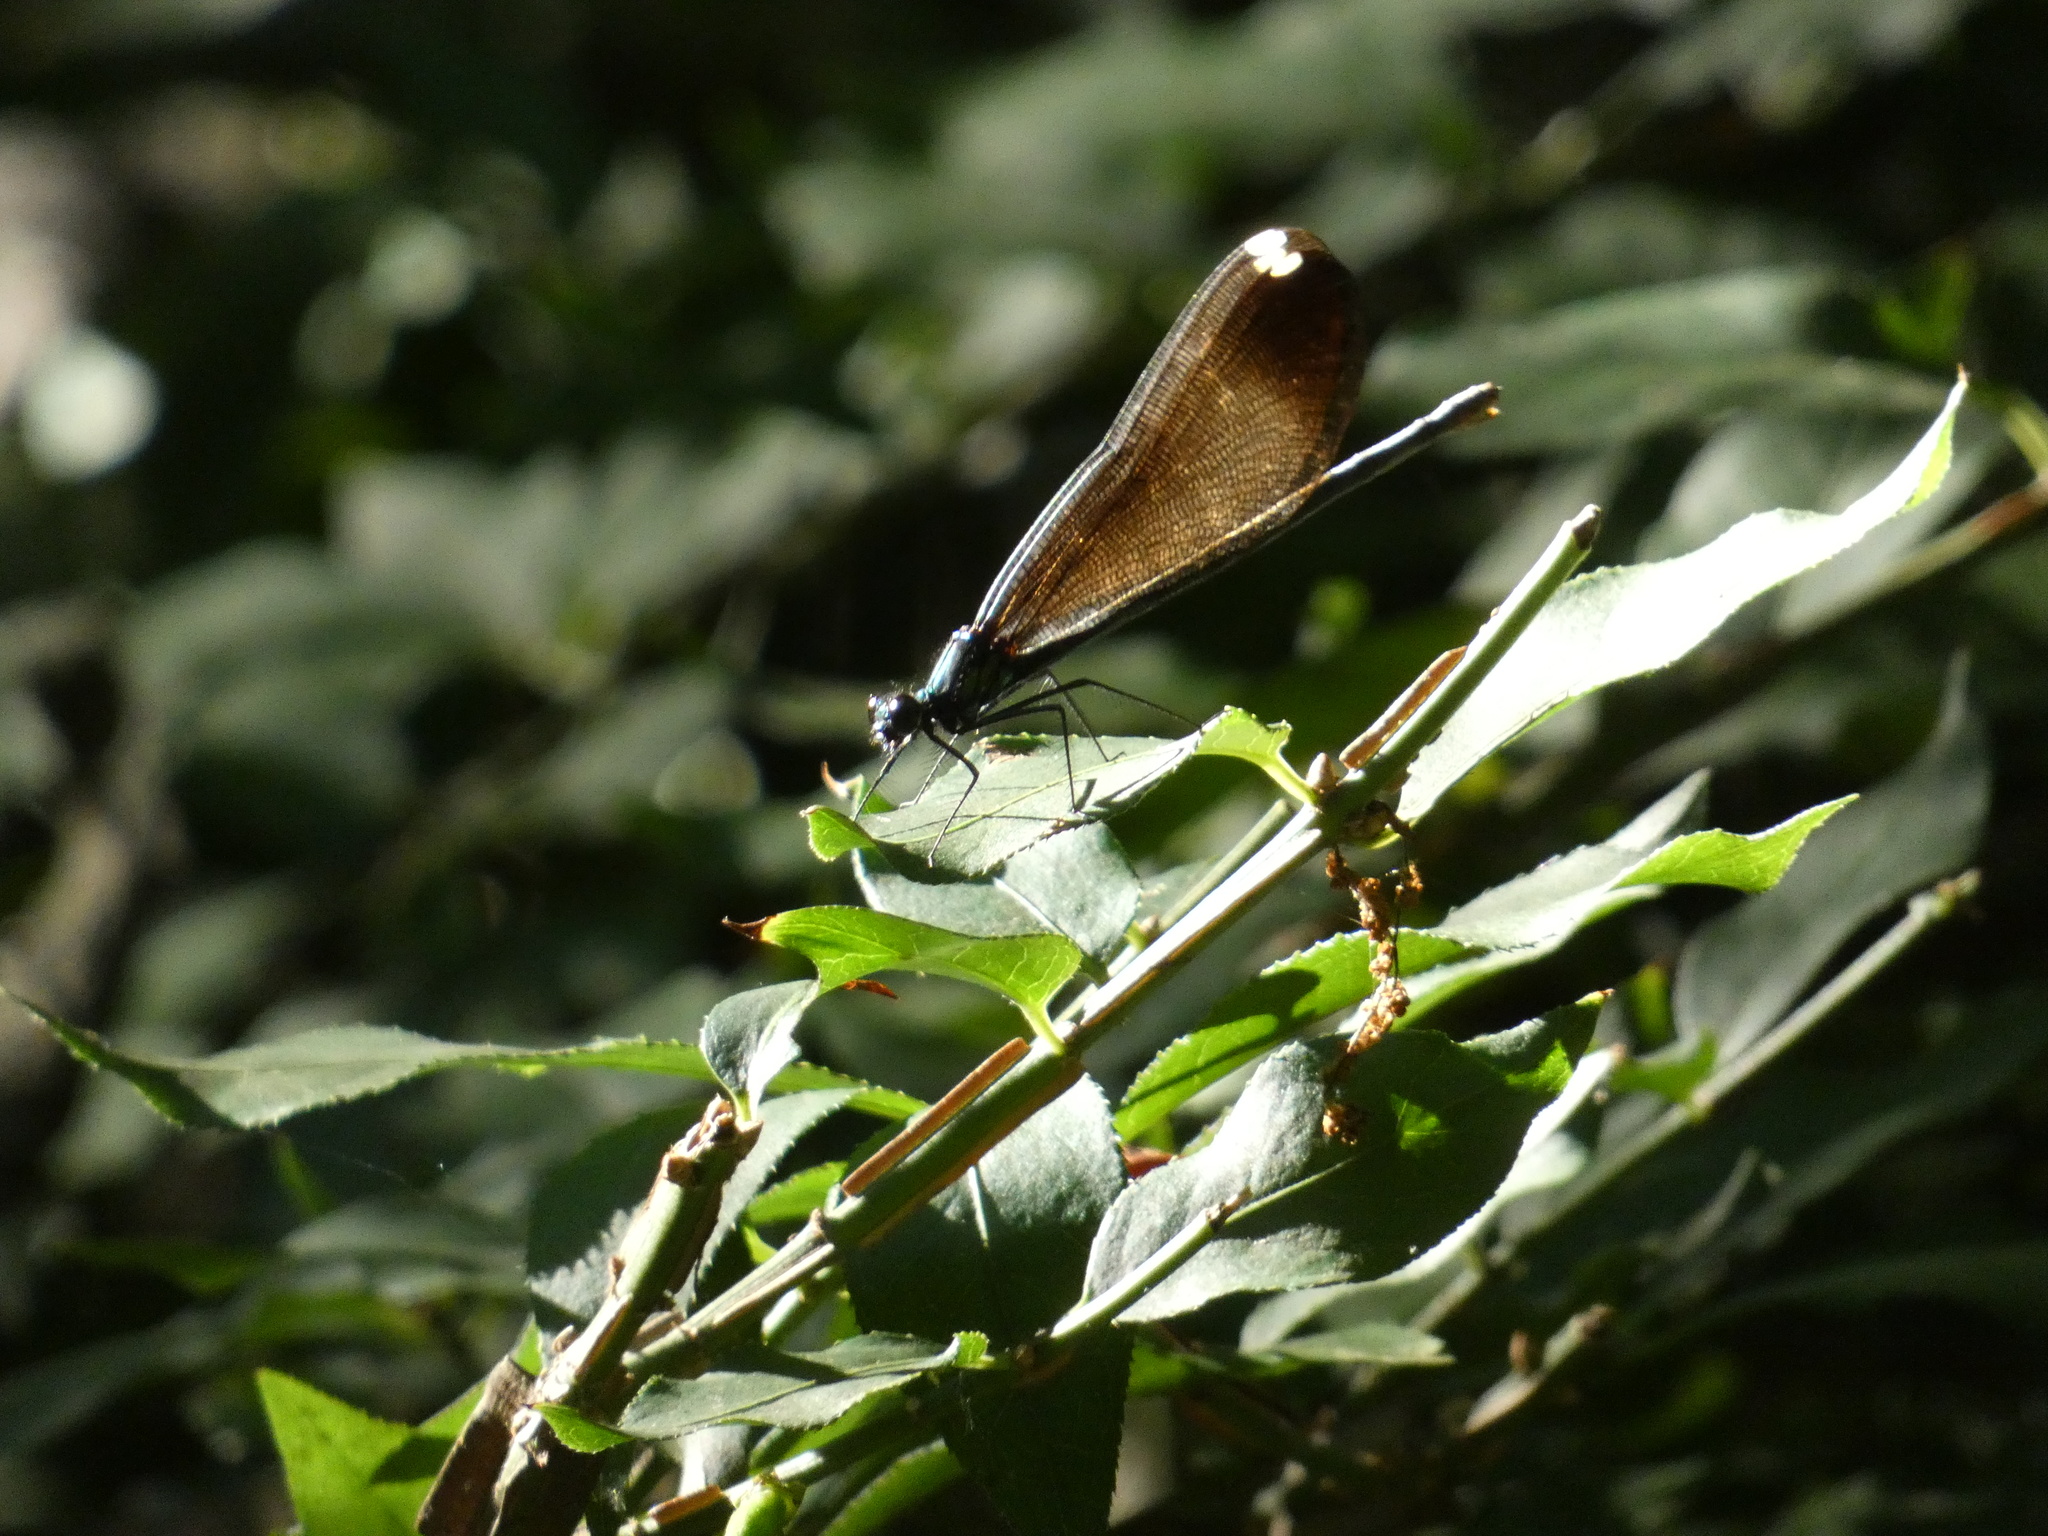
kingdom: Animalia
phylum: Arthropoda
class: Insecta
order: Odonata
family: Calopterygidae
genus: Calopteryx
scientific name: Calopteryx maculata
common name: Ebony jewelwing
